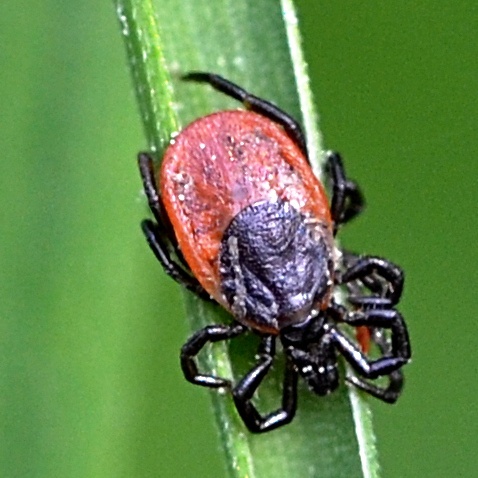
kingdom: Animalia
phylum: Arthropoda
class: Arachnida
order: Ixodida
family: Ixodidae
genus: Ixodes
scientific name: Ixodes ricinus
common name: Castor bean tick
